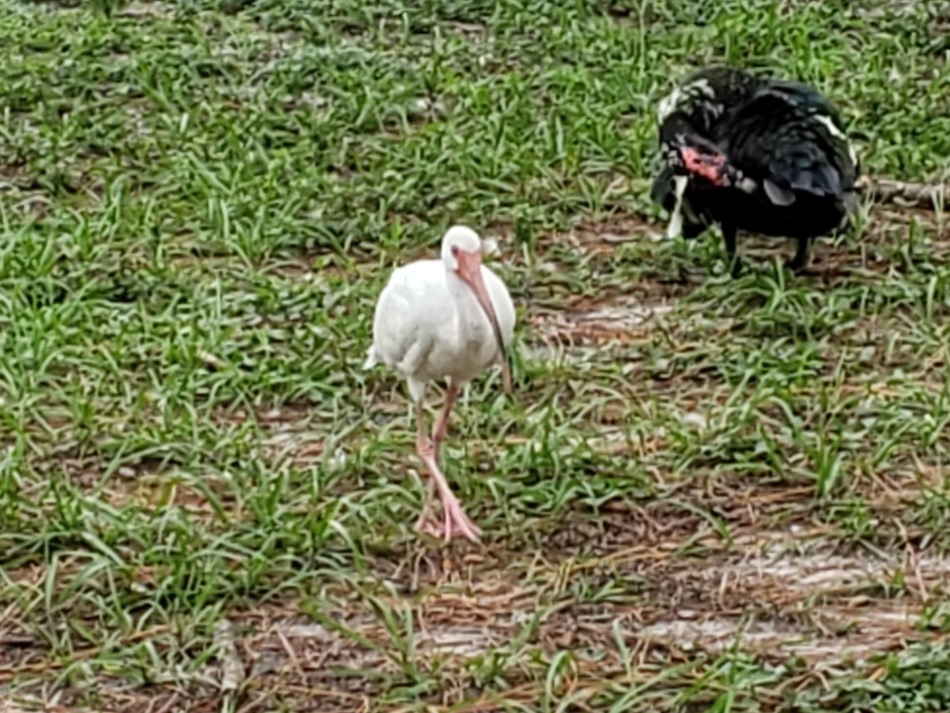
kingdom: Animalia
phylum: Chordata
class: Aves
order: Pelecaniformes
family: Threskiornithidae
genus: Eudocimus
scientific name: Eudocimus albus
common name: White ibis
